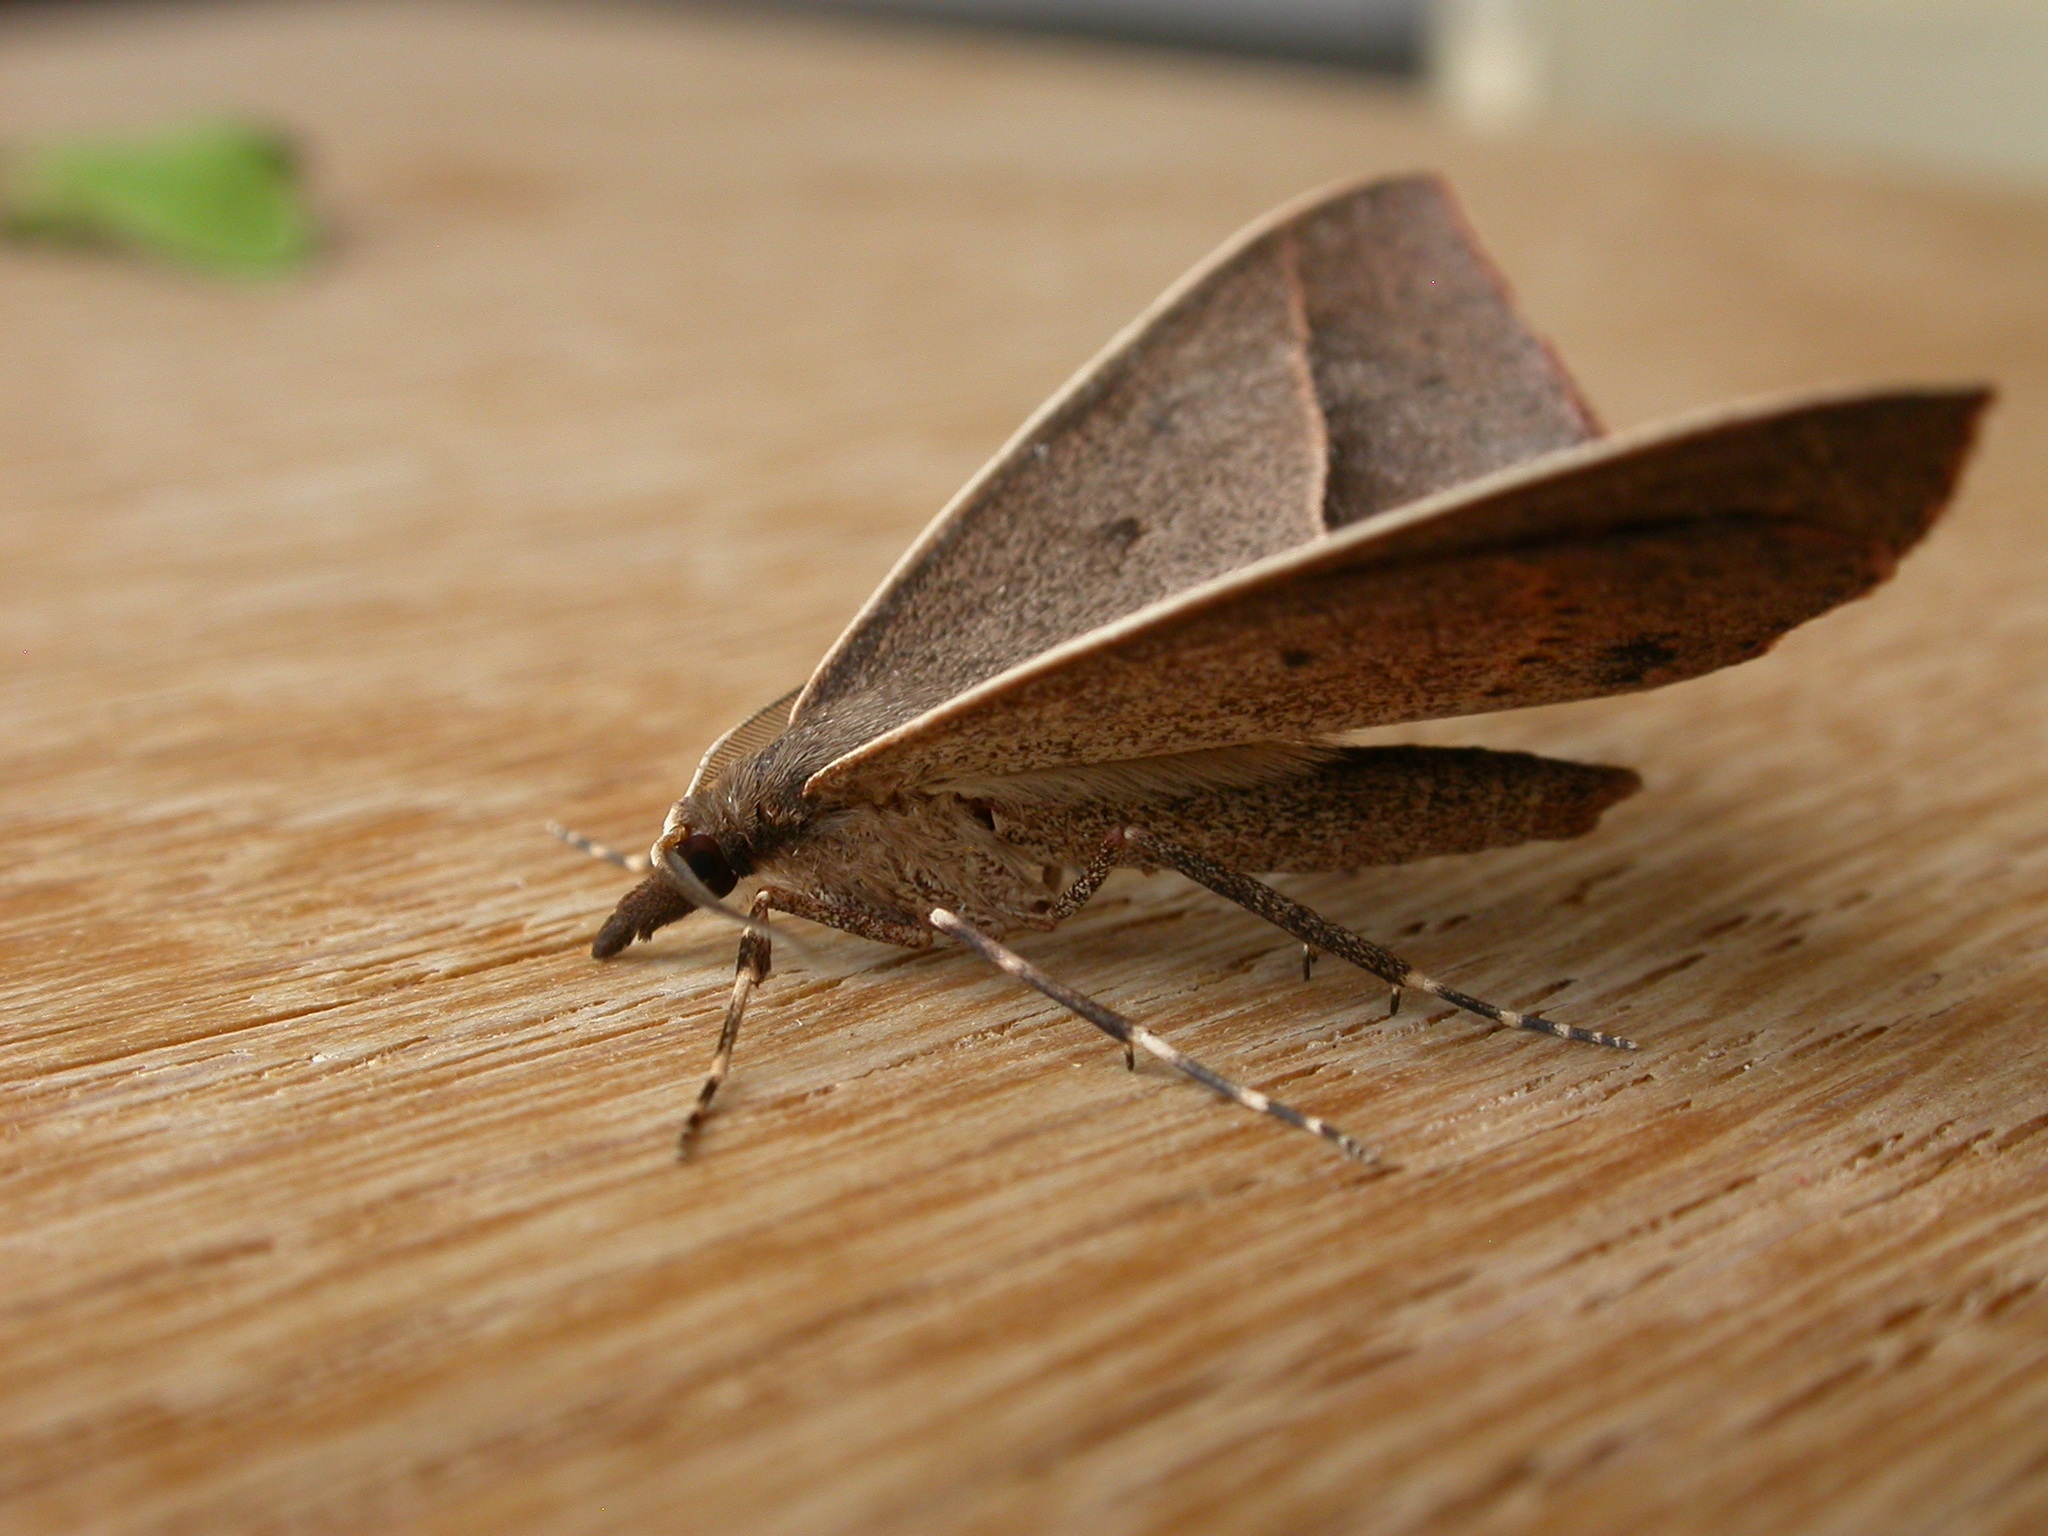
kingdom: Animalia
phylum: Arthropoda
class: Insecta
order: Lepidoptera
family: Geometridae
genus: Epidesmia
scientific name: Epidesmia chilonaria
